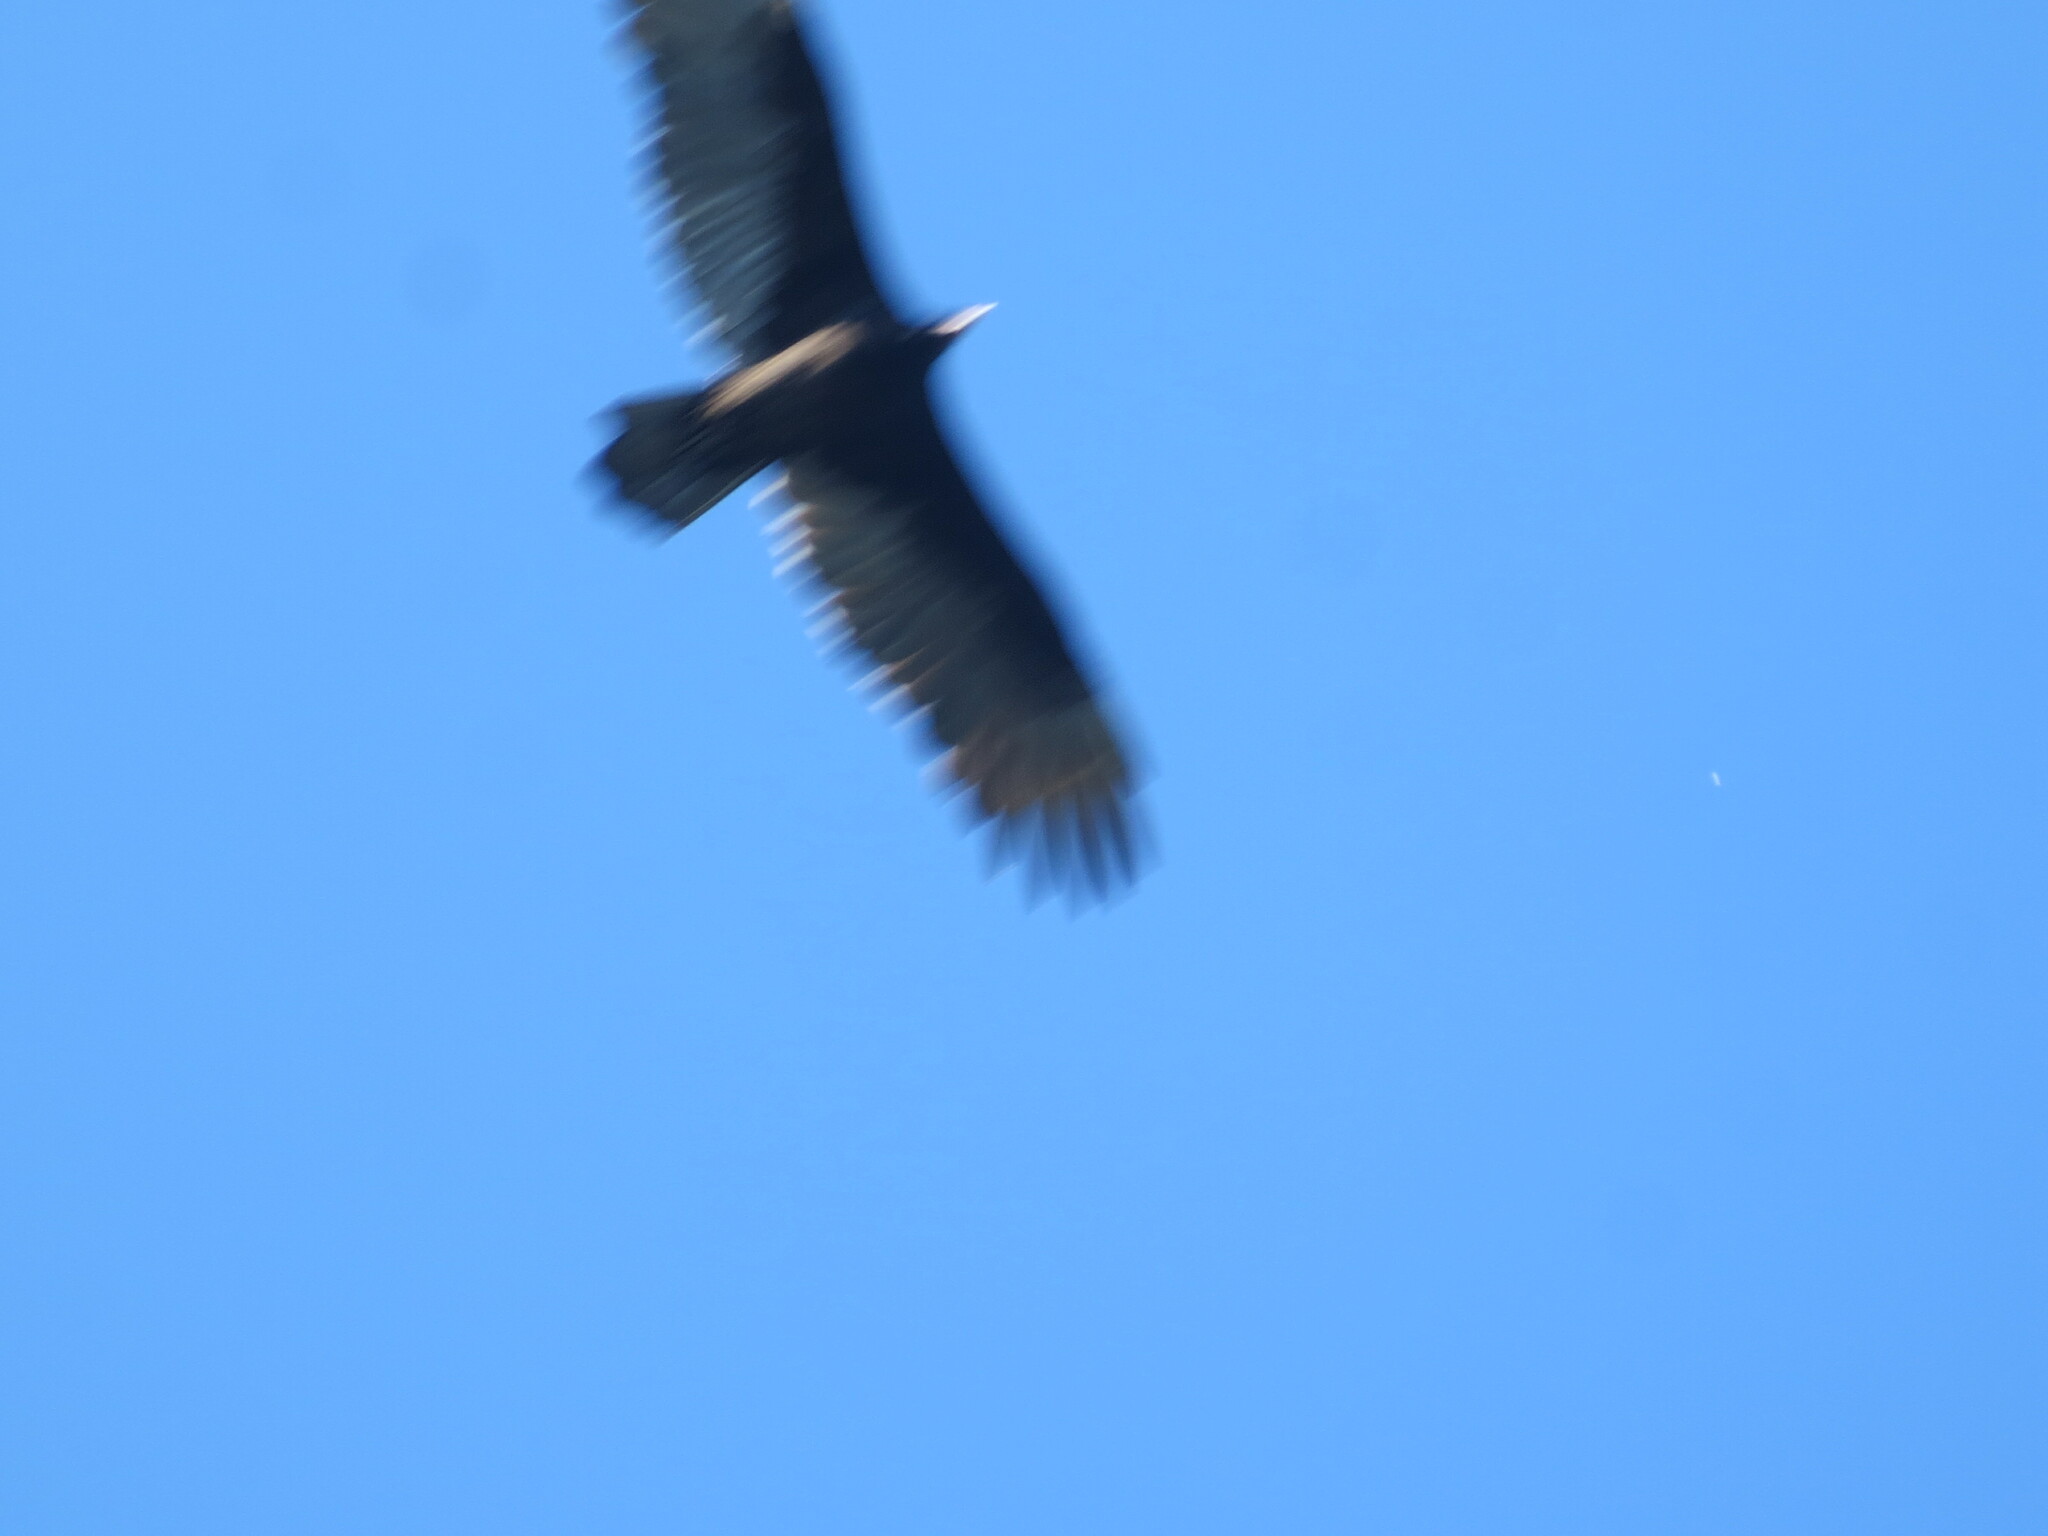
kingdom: Animalia
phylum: Chordata
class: Aves
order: Accipitriformes
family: Cathartidae
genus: Cathartes
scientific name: Cathartes aura
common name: Turkey vulture
